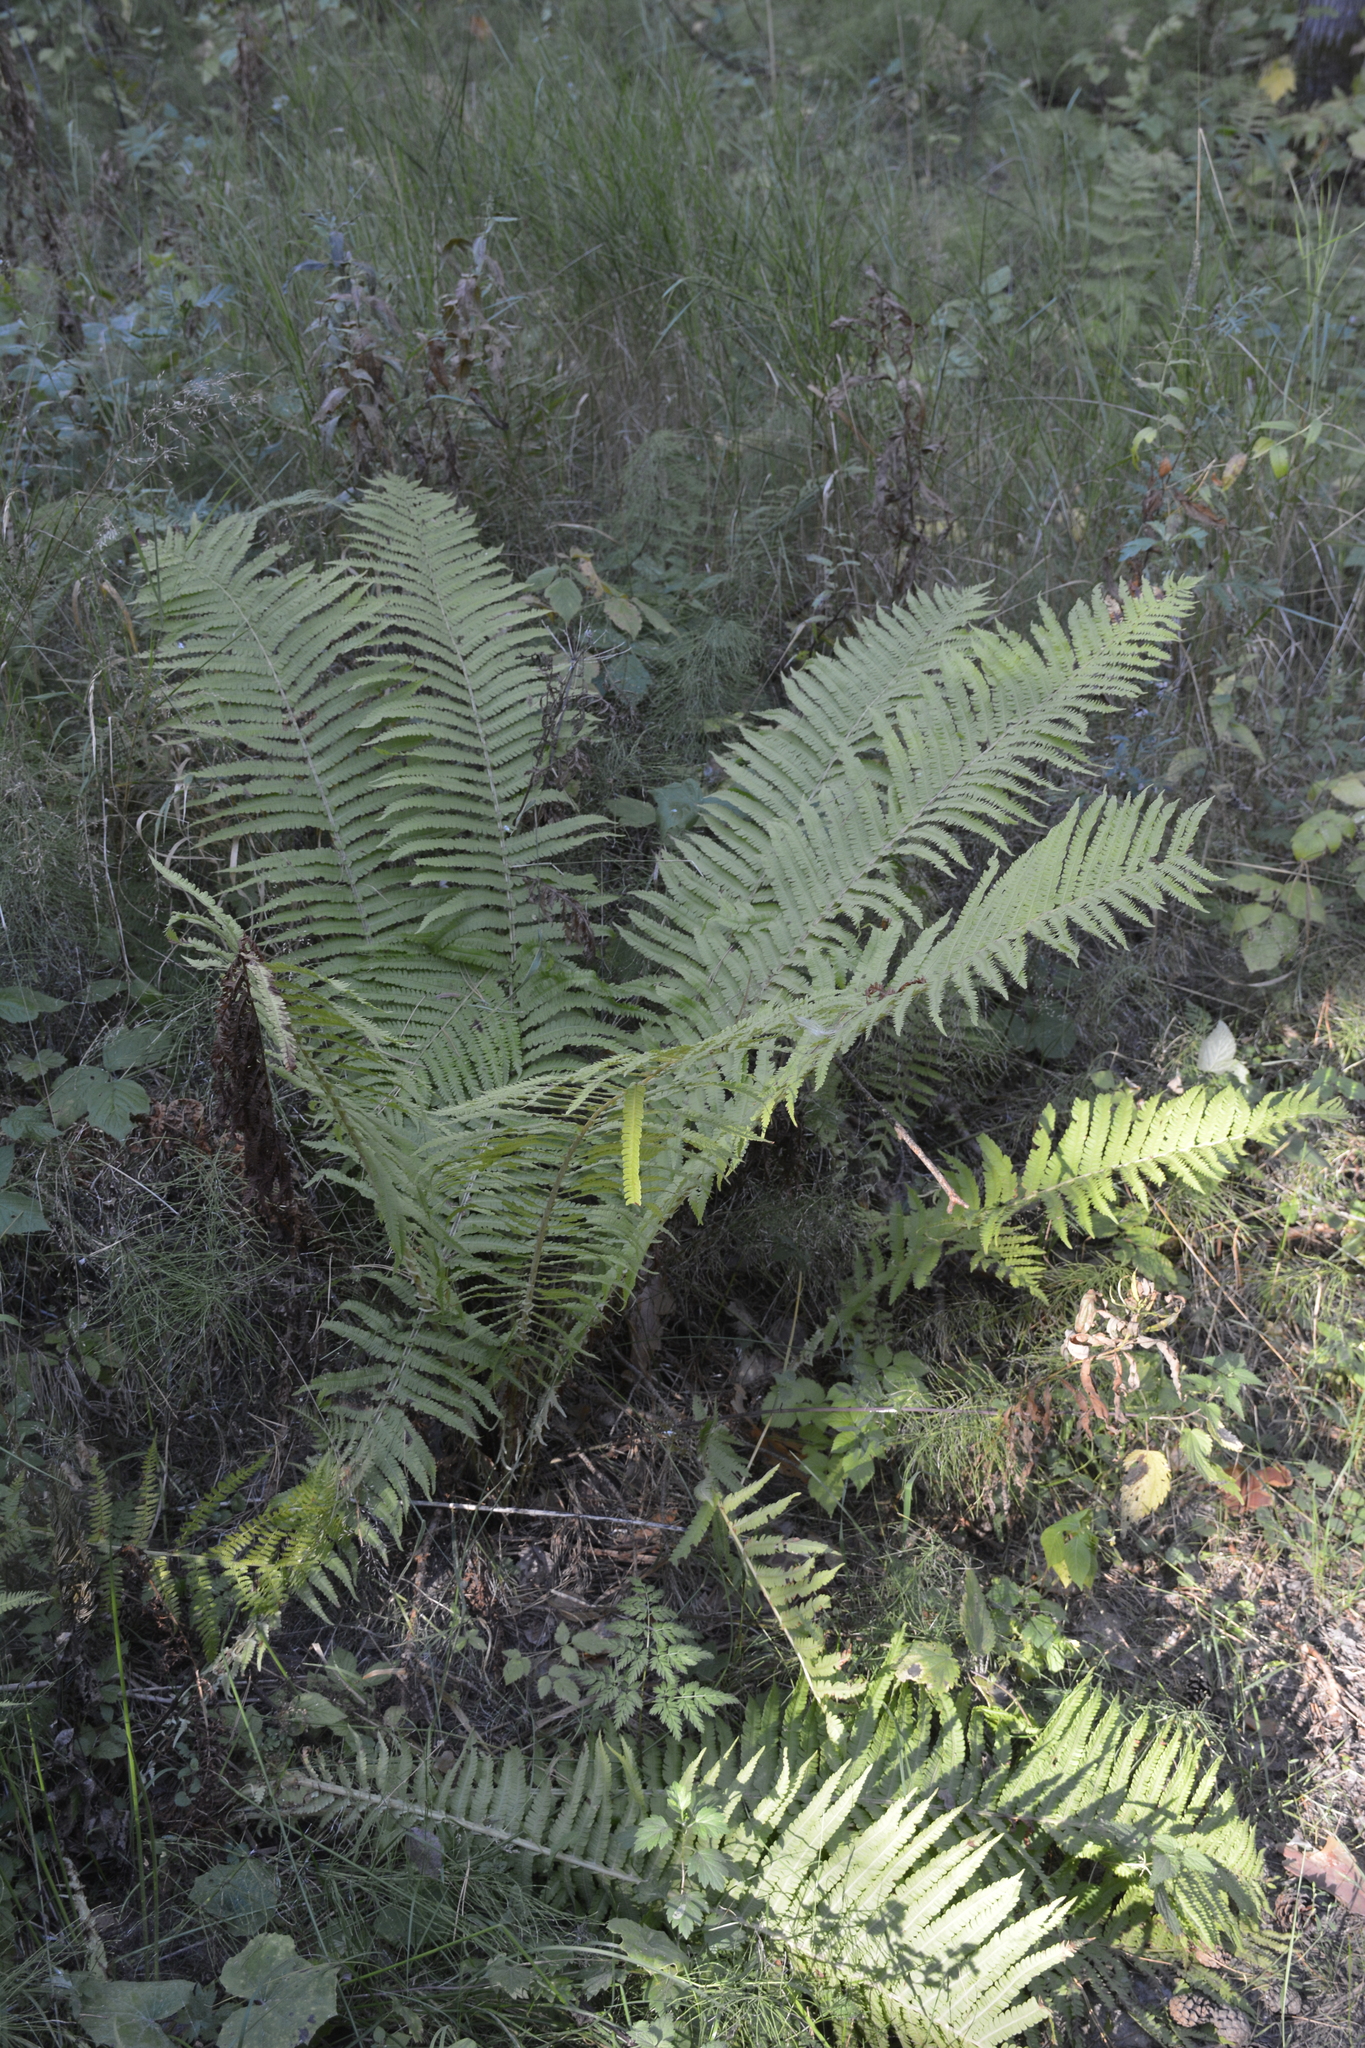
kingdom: Plantae
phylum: Tracheophyta
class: Polypodiopsida
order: Polypodiales
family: Onocleaceae
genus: Matteuccia
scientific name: Matteuccia struthiopteris
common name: Ostrich fern
